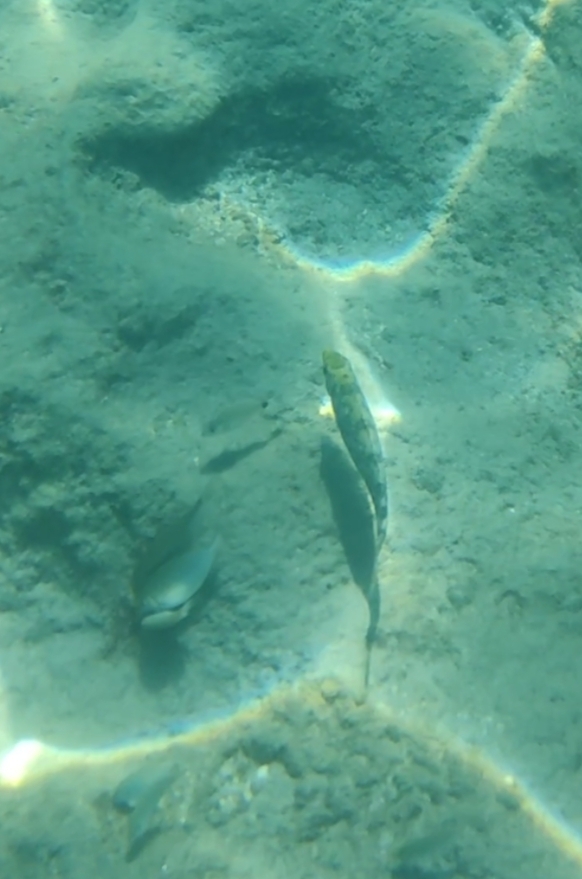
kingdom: Animalia
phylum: Chordata
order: Perciformes
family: Siganidae
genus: Siganus
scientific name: Siganus rivulatus
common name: Marbled spinefoot
